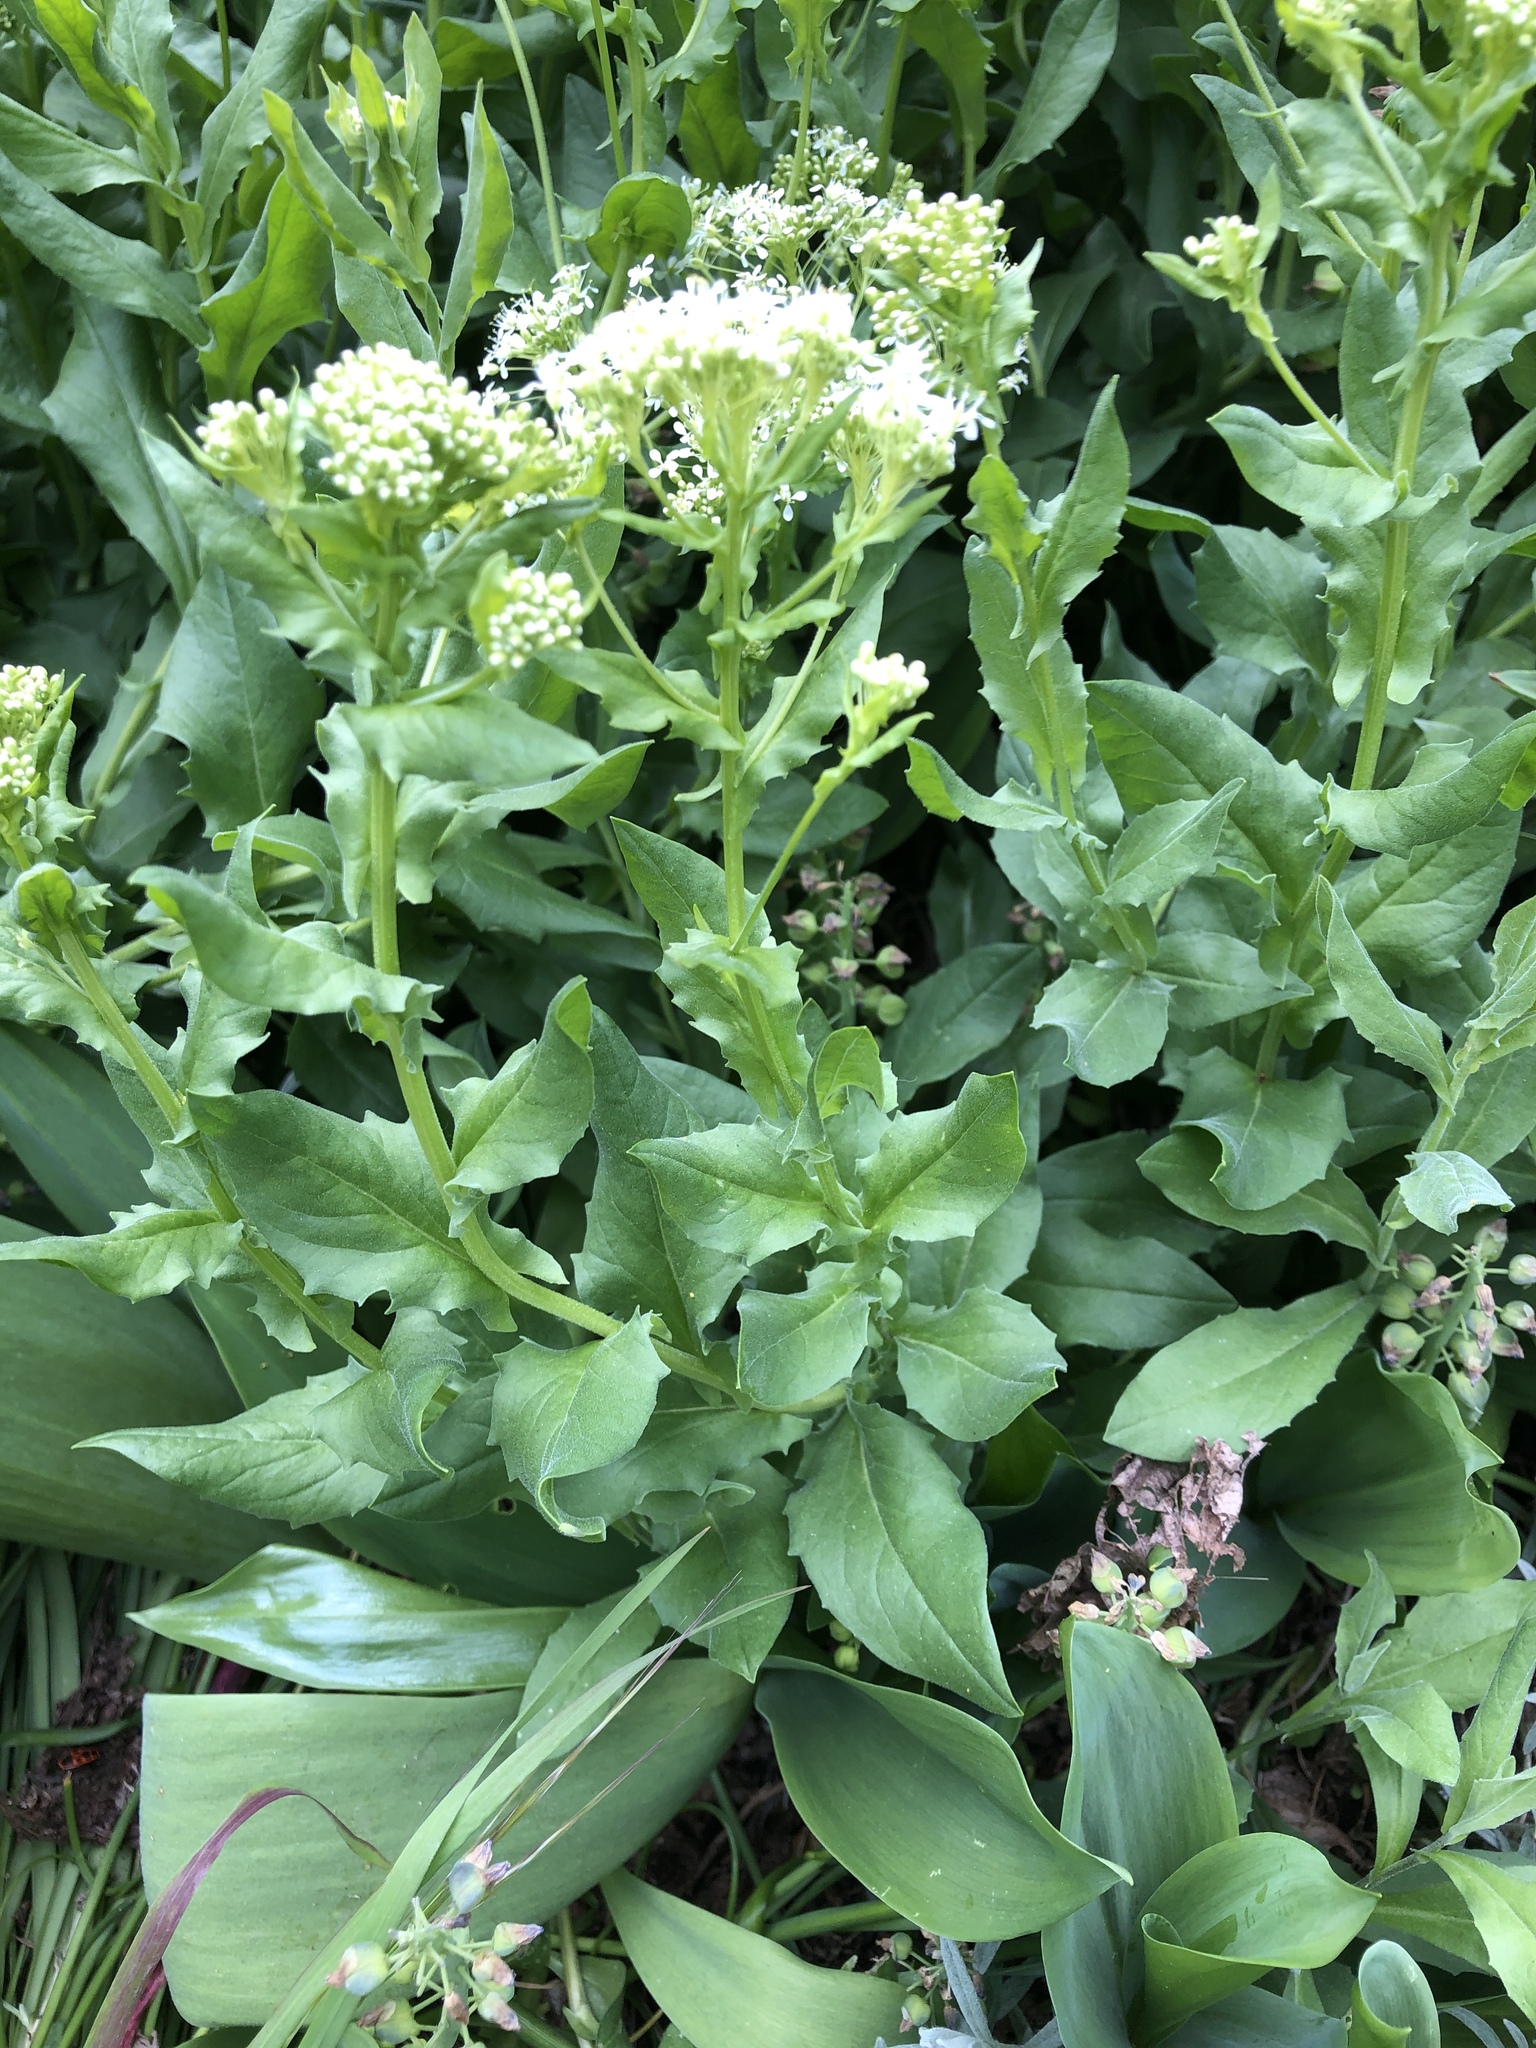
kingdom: Plantae
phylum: Tracheophyta
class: Magnoliopsida
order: Brassicales
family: Brassicaceae
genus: Lepidium
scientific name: Lepidium draba
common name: Hoary cress
